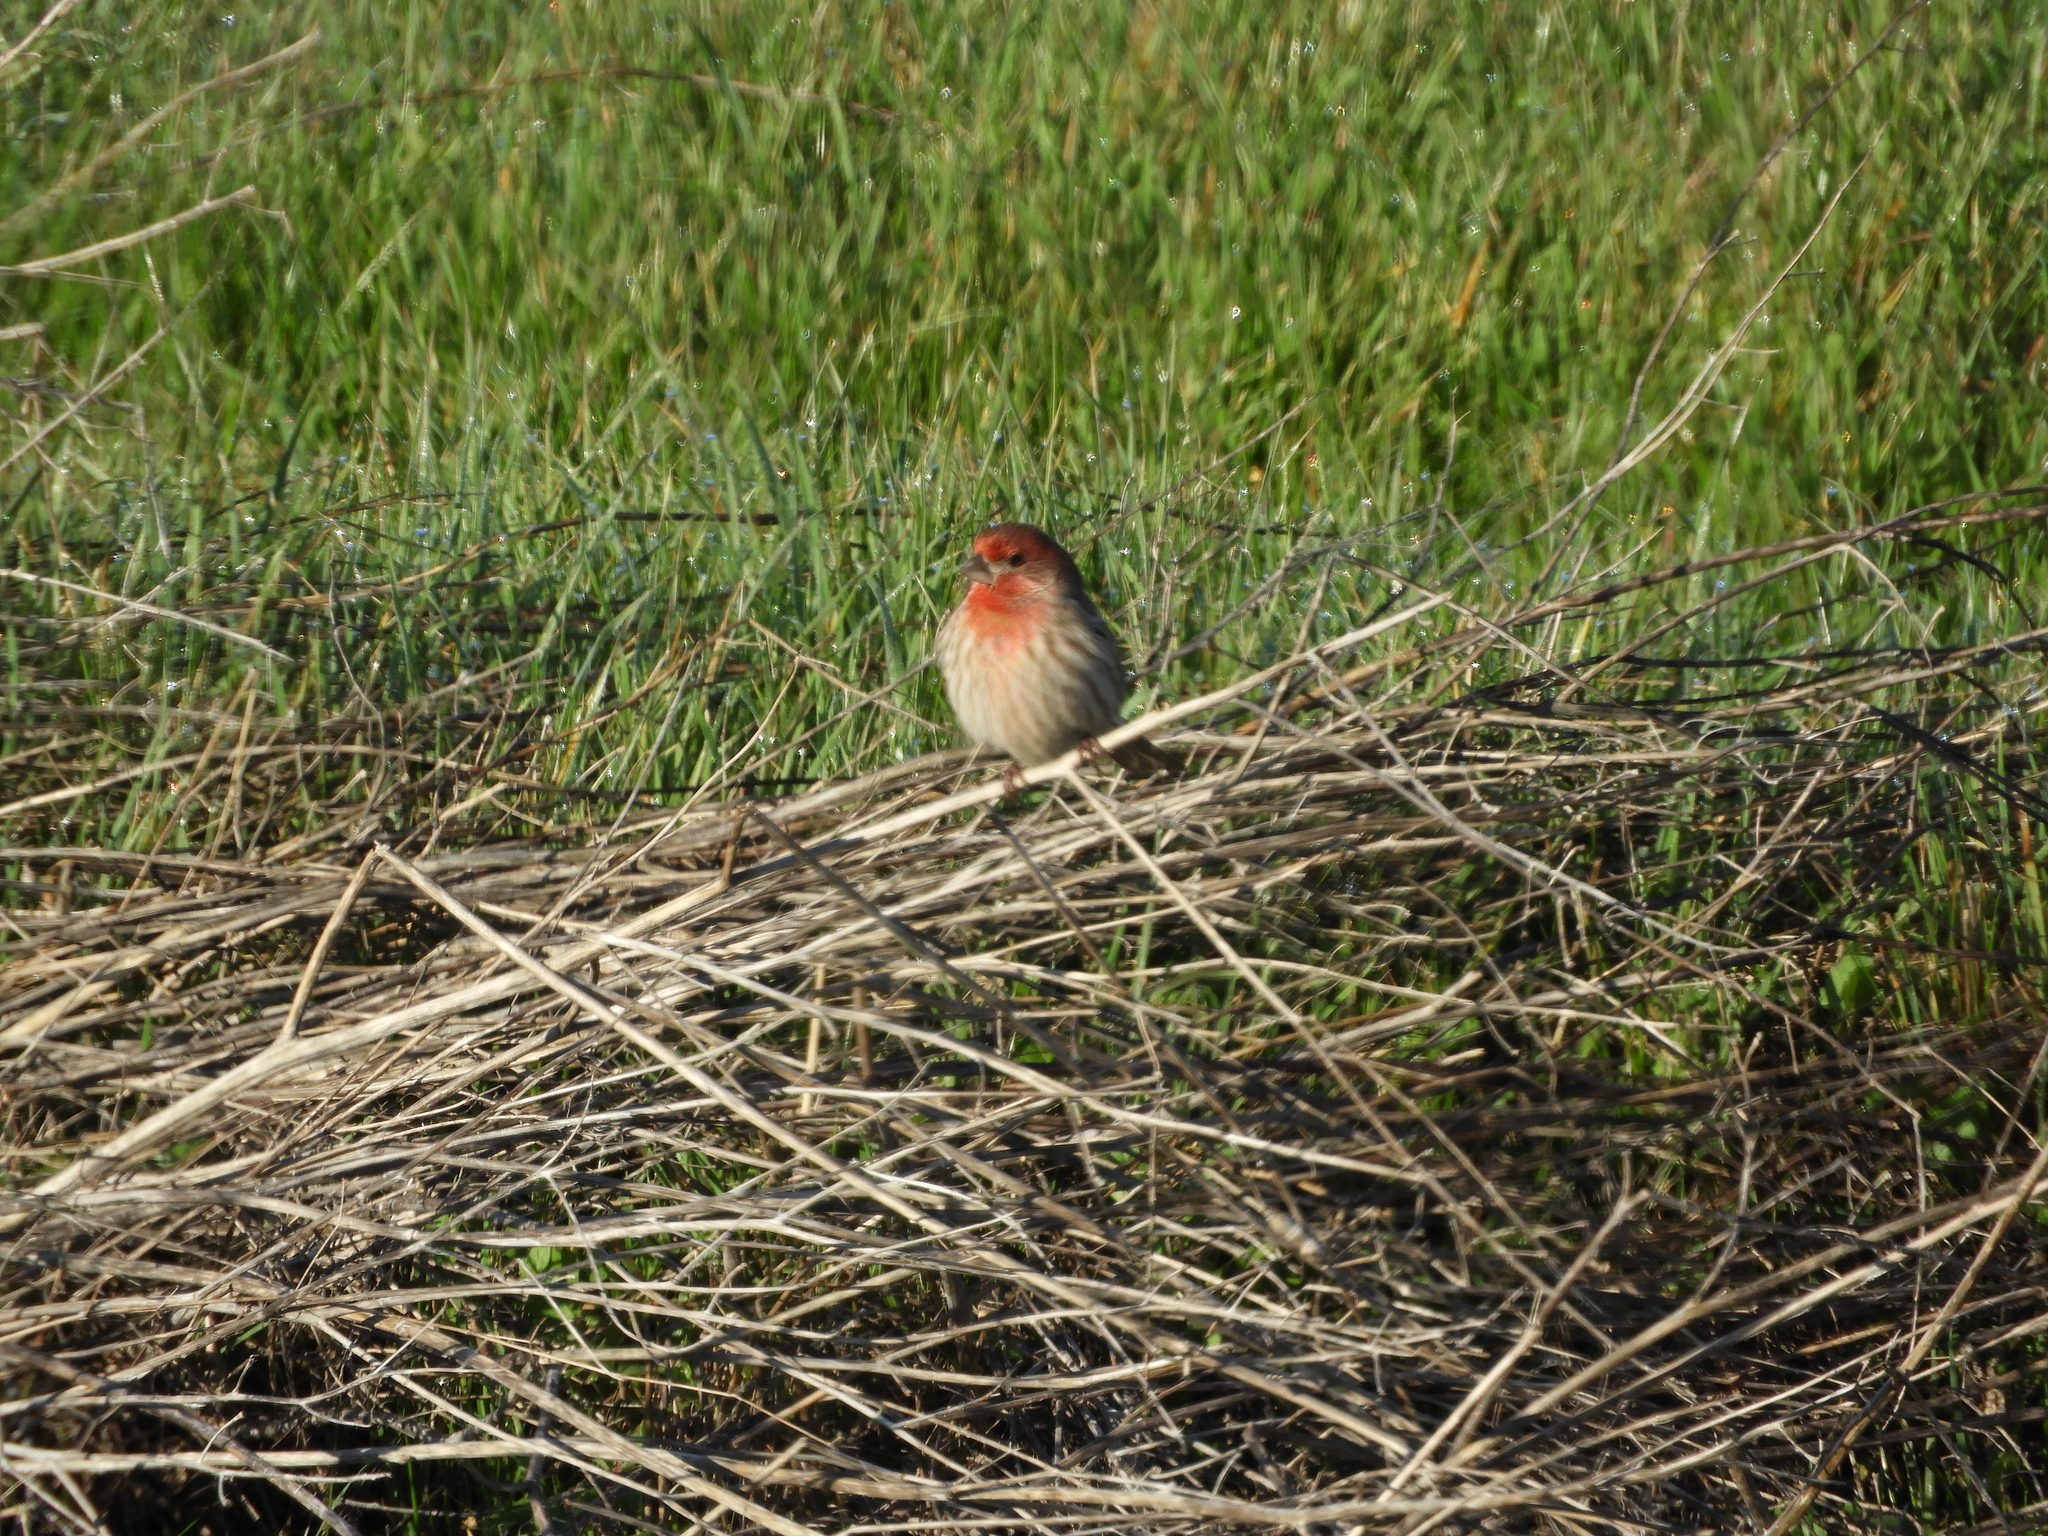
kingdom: Animalia
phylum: Chordata
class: Aves
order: Passeriformes
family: Fringillidae
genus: Haemorhous
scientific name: Haemorhous mexicanus
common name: House finch
